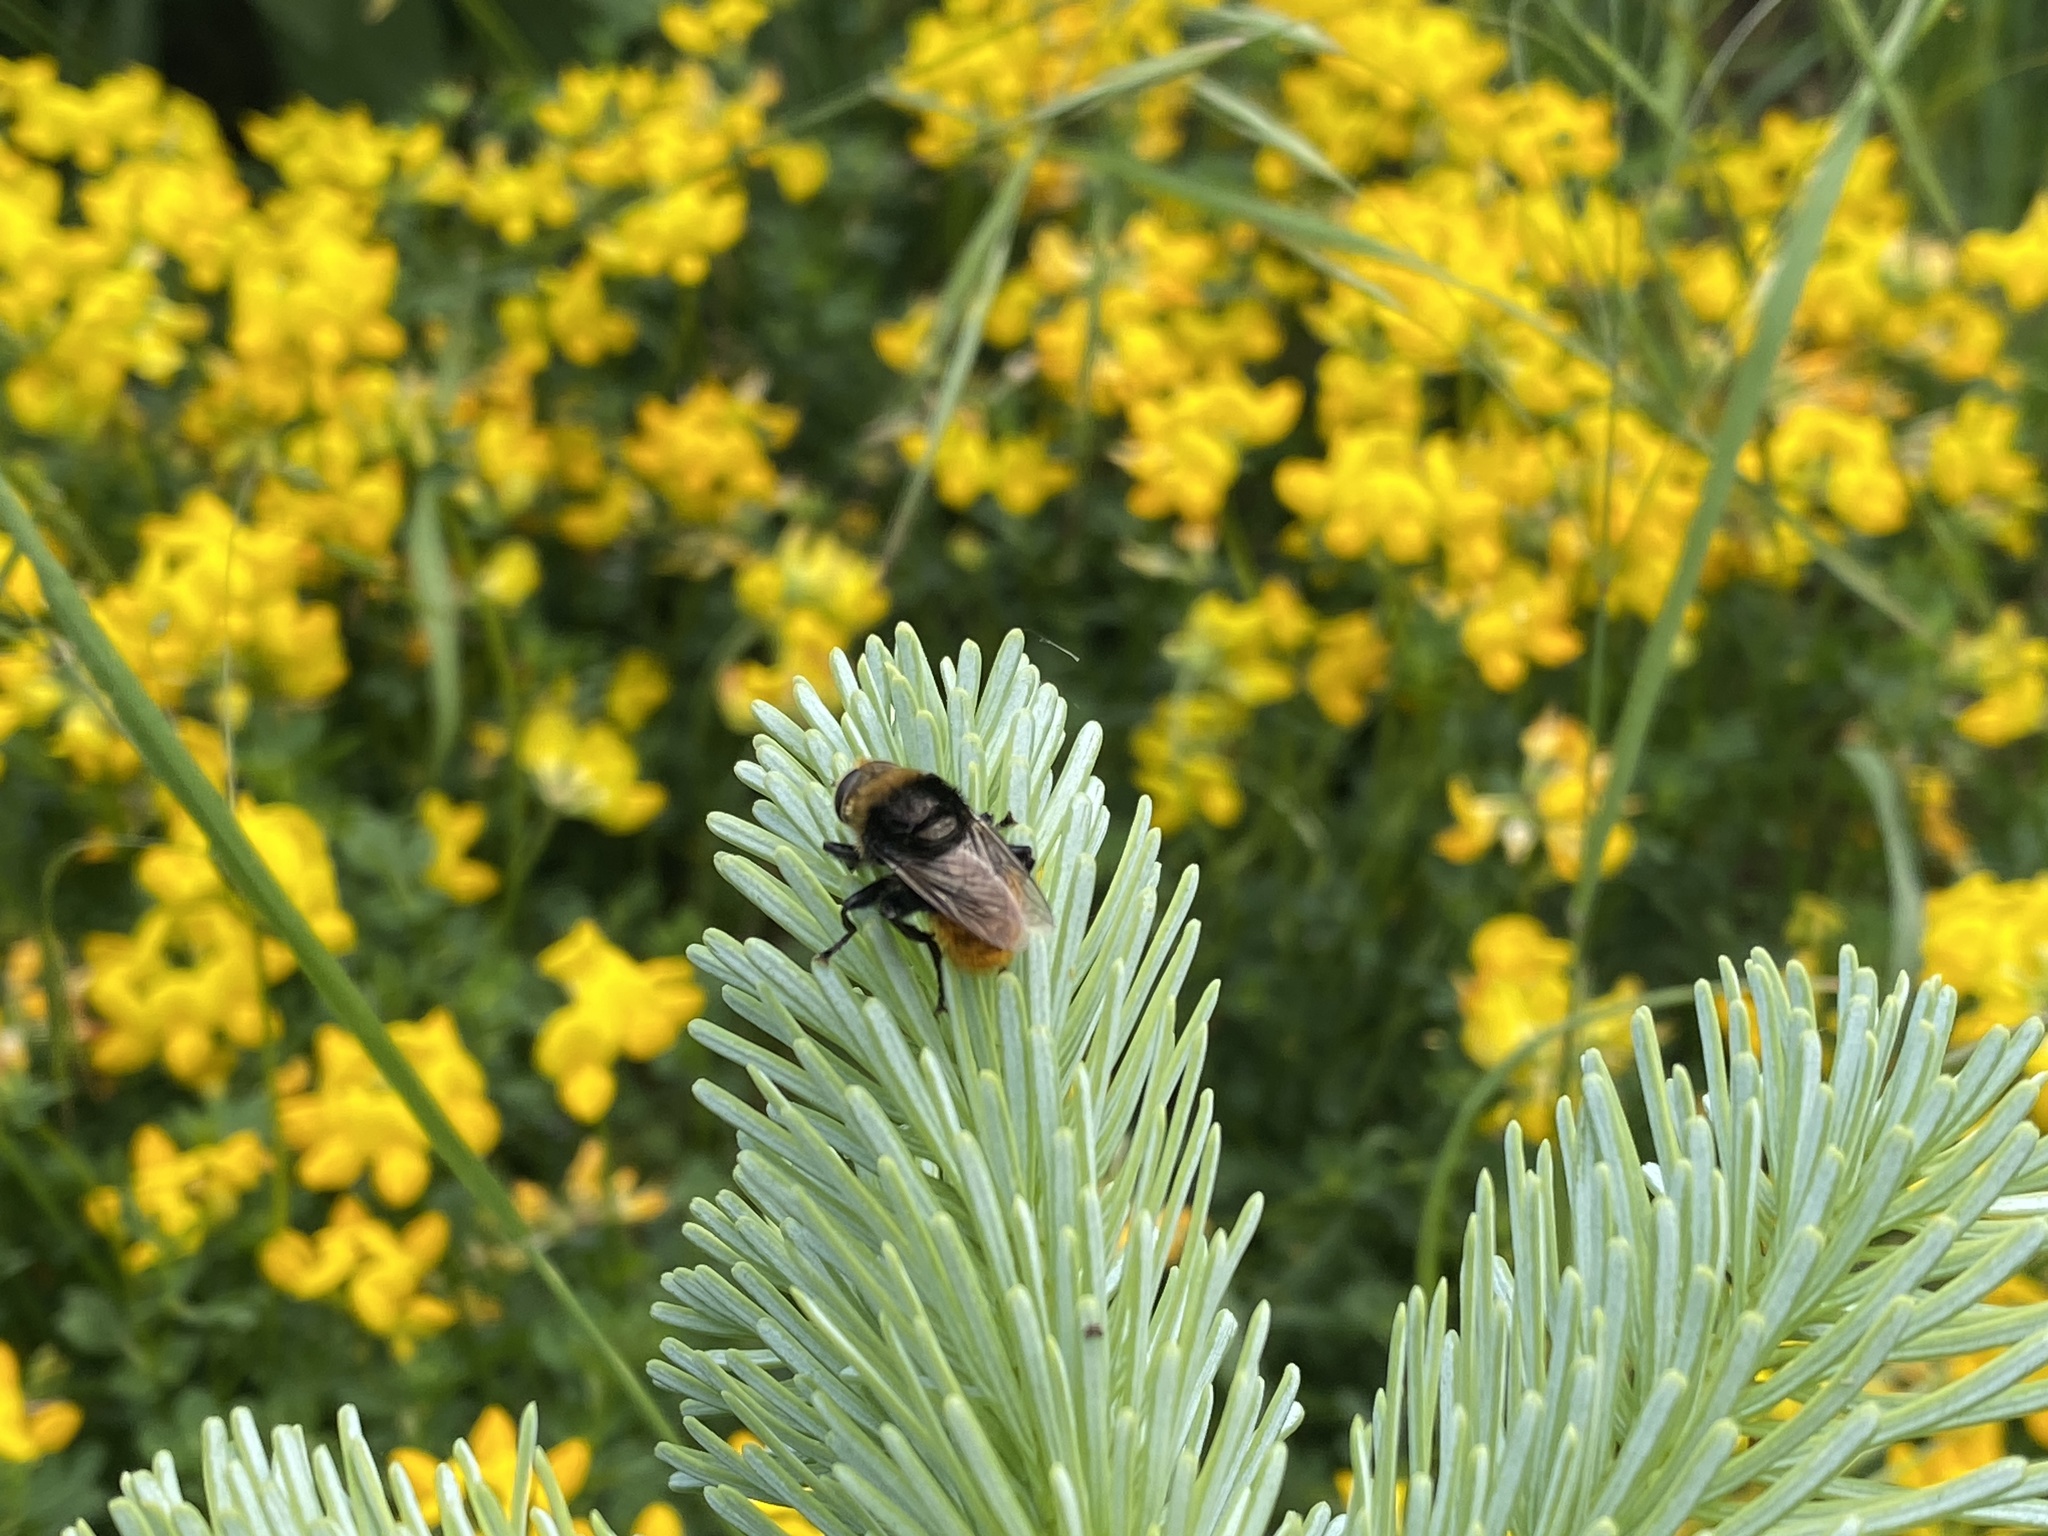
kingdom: Animalia
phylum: Arthropoda
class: Insecta
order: Diptera
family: Syrphidae
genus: Merodon
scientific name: Merodon equestris
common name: Greater bulb-fly
